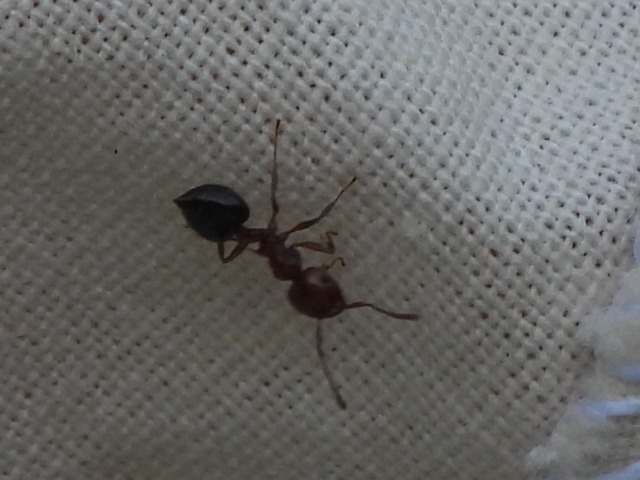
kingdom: Animalia
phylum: Arthropoda
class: Insecta
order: Hymenoptera
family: Formicidae
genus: Crematogaster
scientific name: Crematogaster laeviuscula
